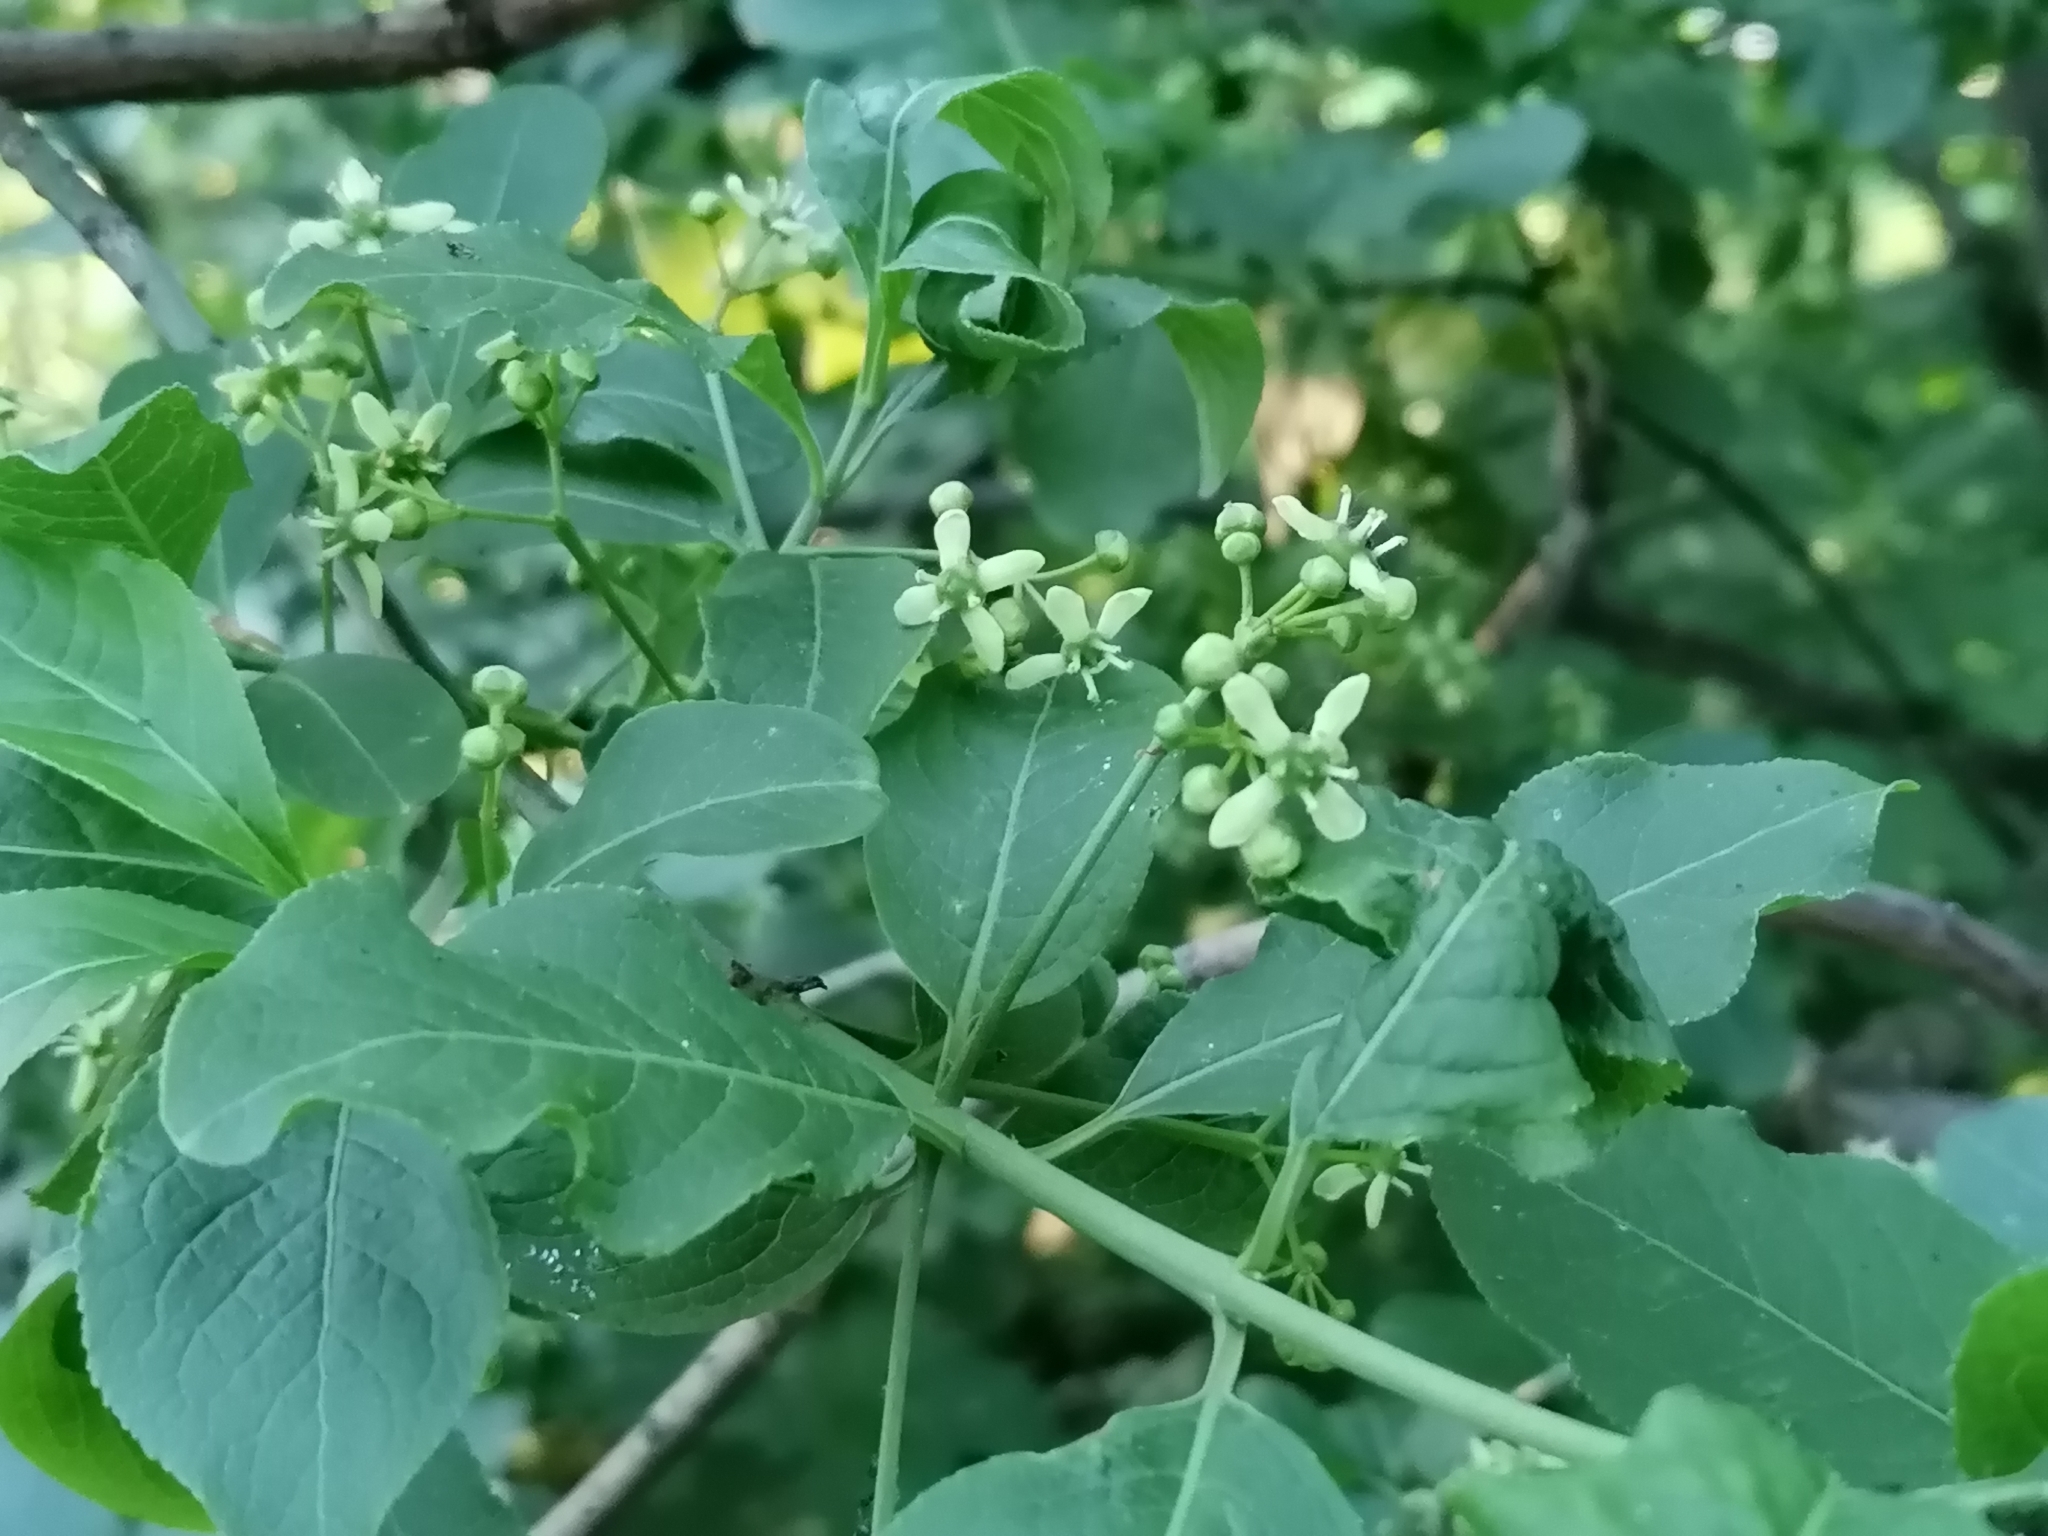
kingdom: Plantae
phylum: Tracheophyta
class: Magnoliopsida
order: Celastrales
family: Celastraceae
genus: Euonymus
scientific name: Euonymus europaeus
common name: Spindle
